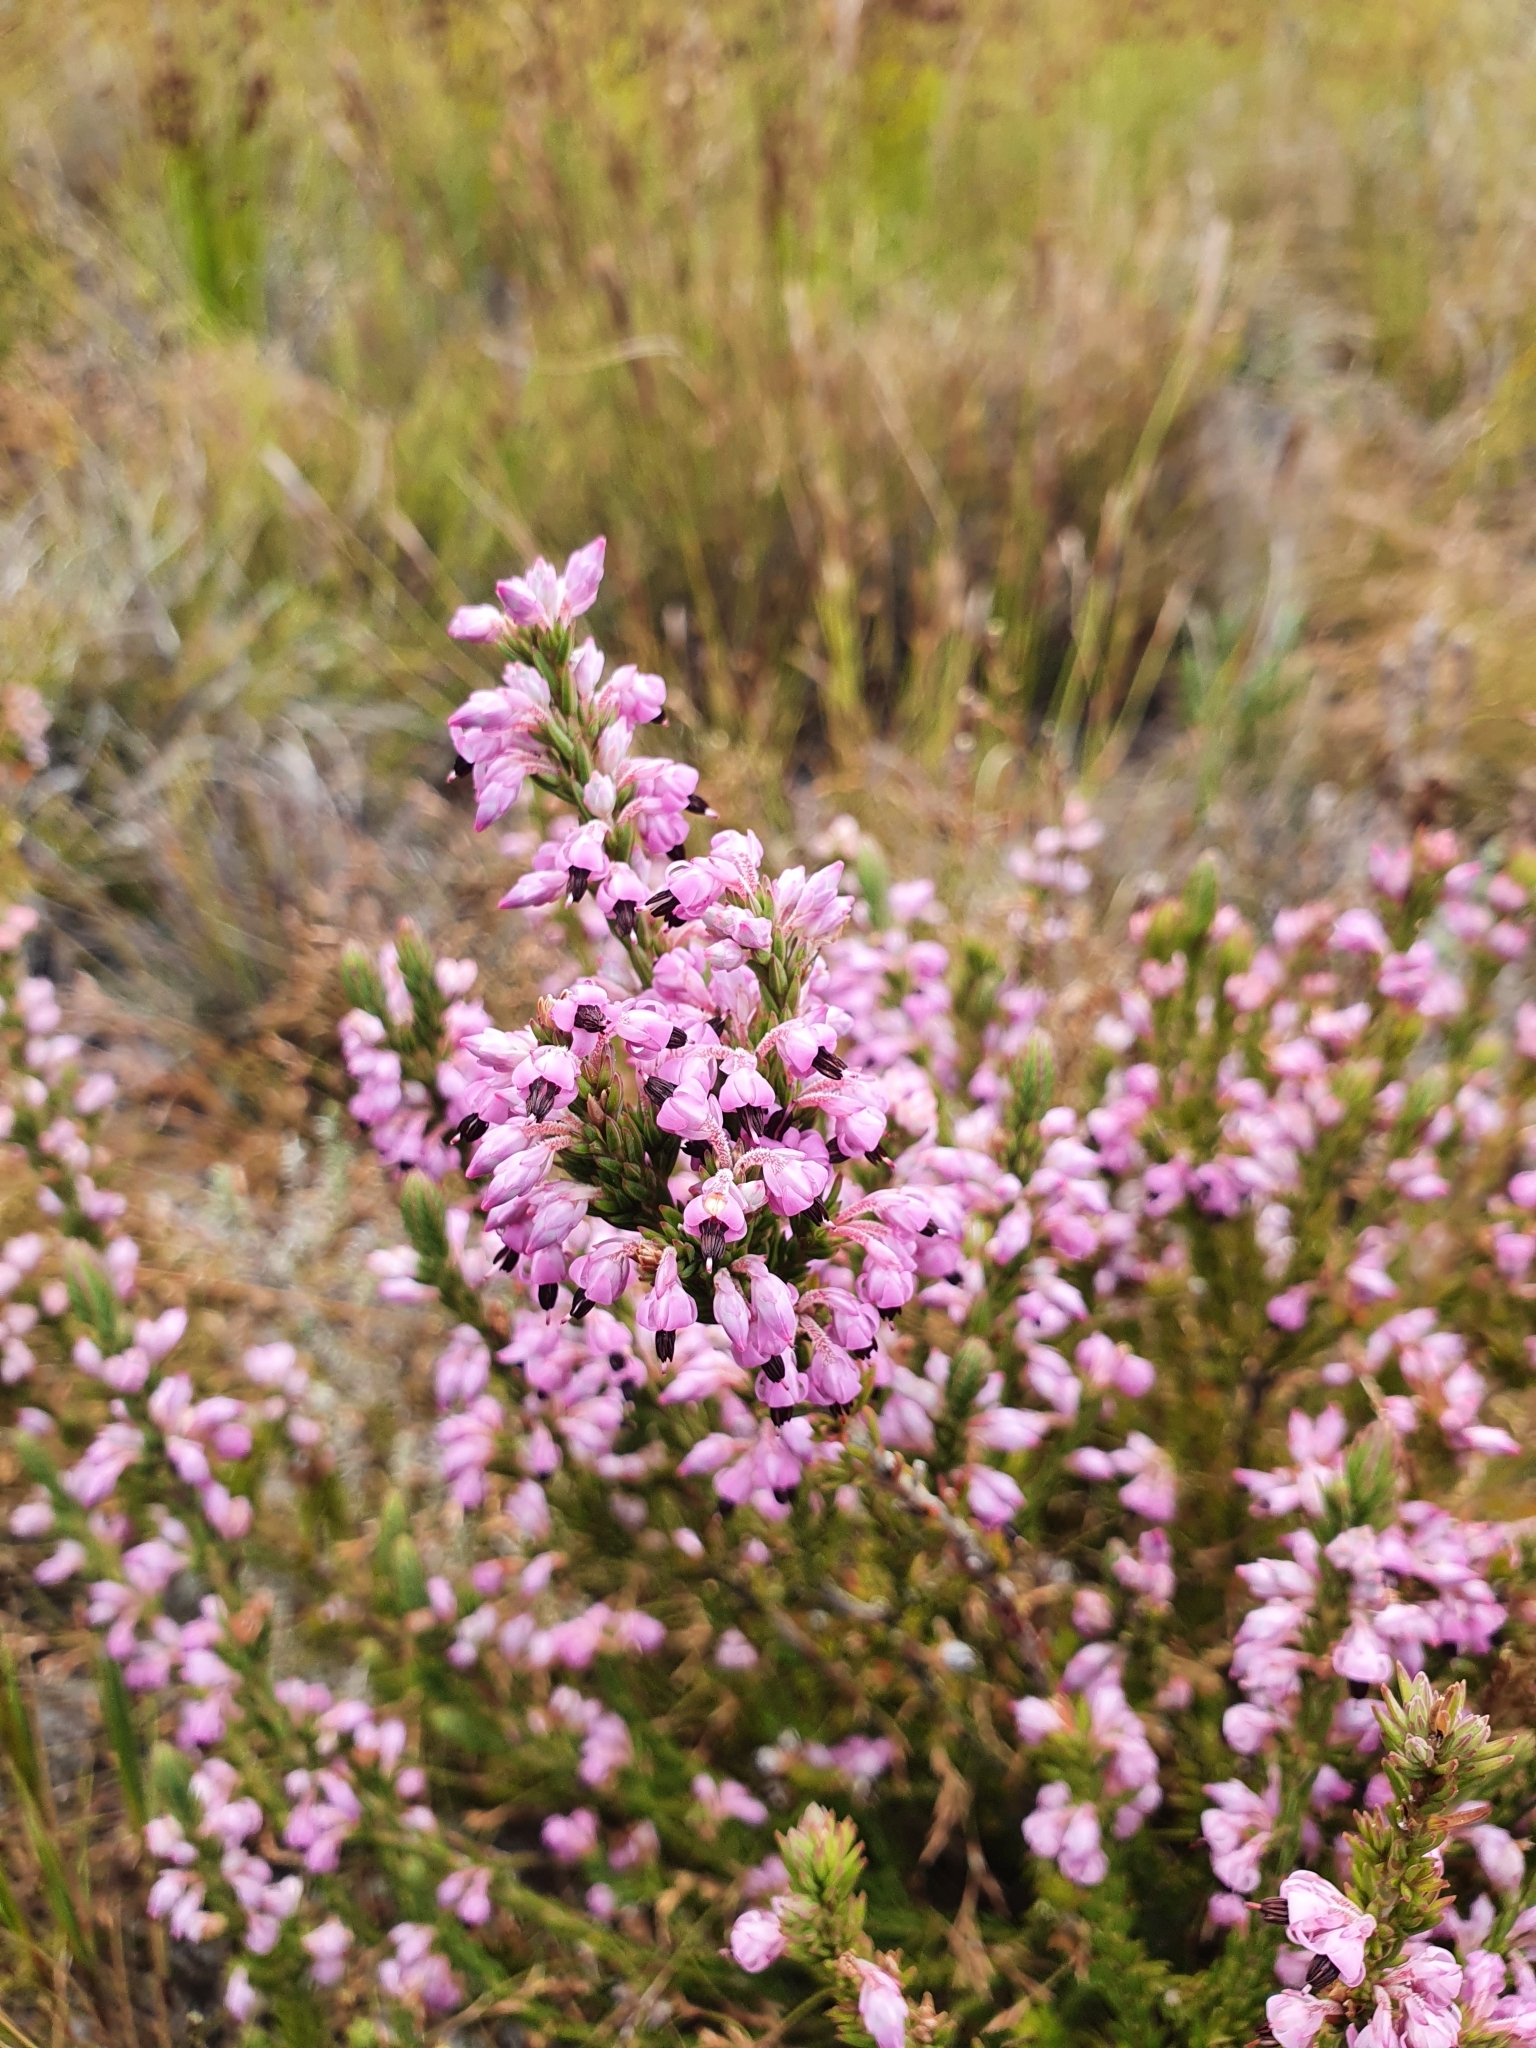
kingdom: Plantae
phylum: Tracheophyta
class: Magnoliopsida
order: Ericales
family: Ericaceae
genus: Erica
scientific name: Erica calycina
